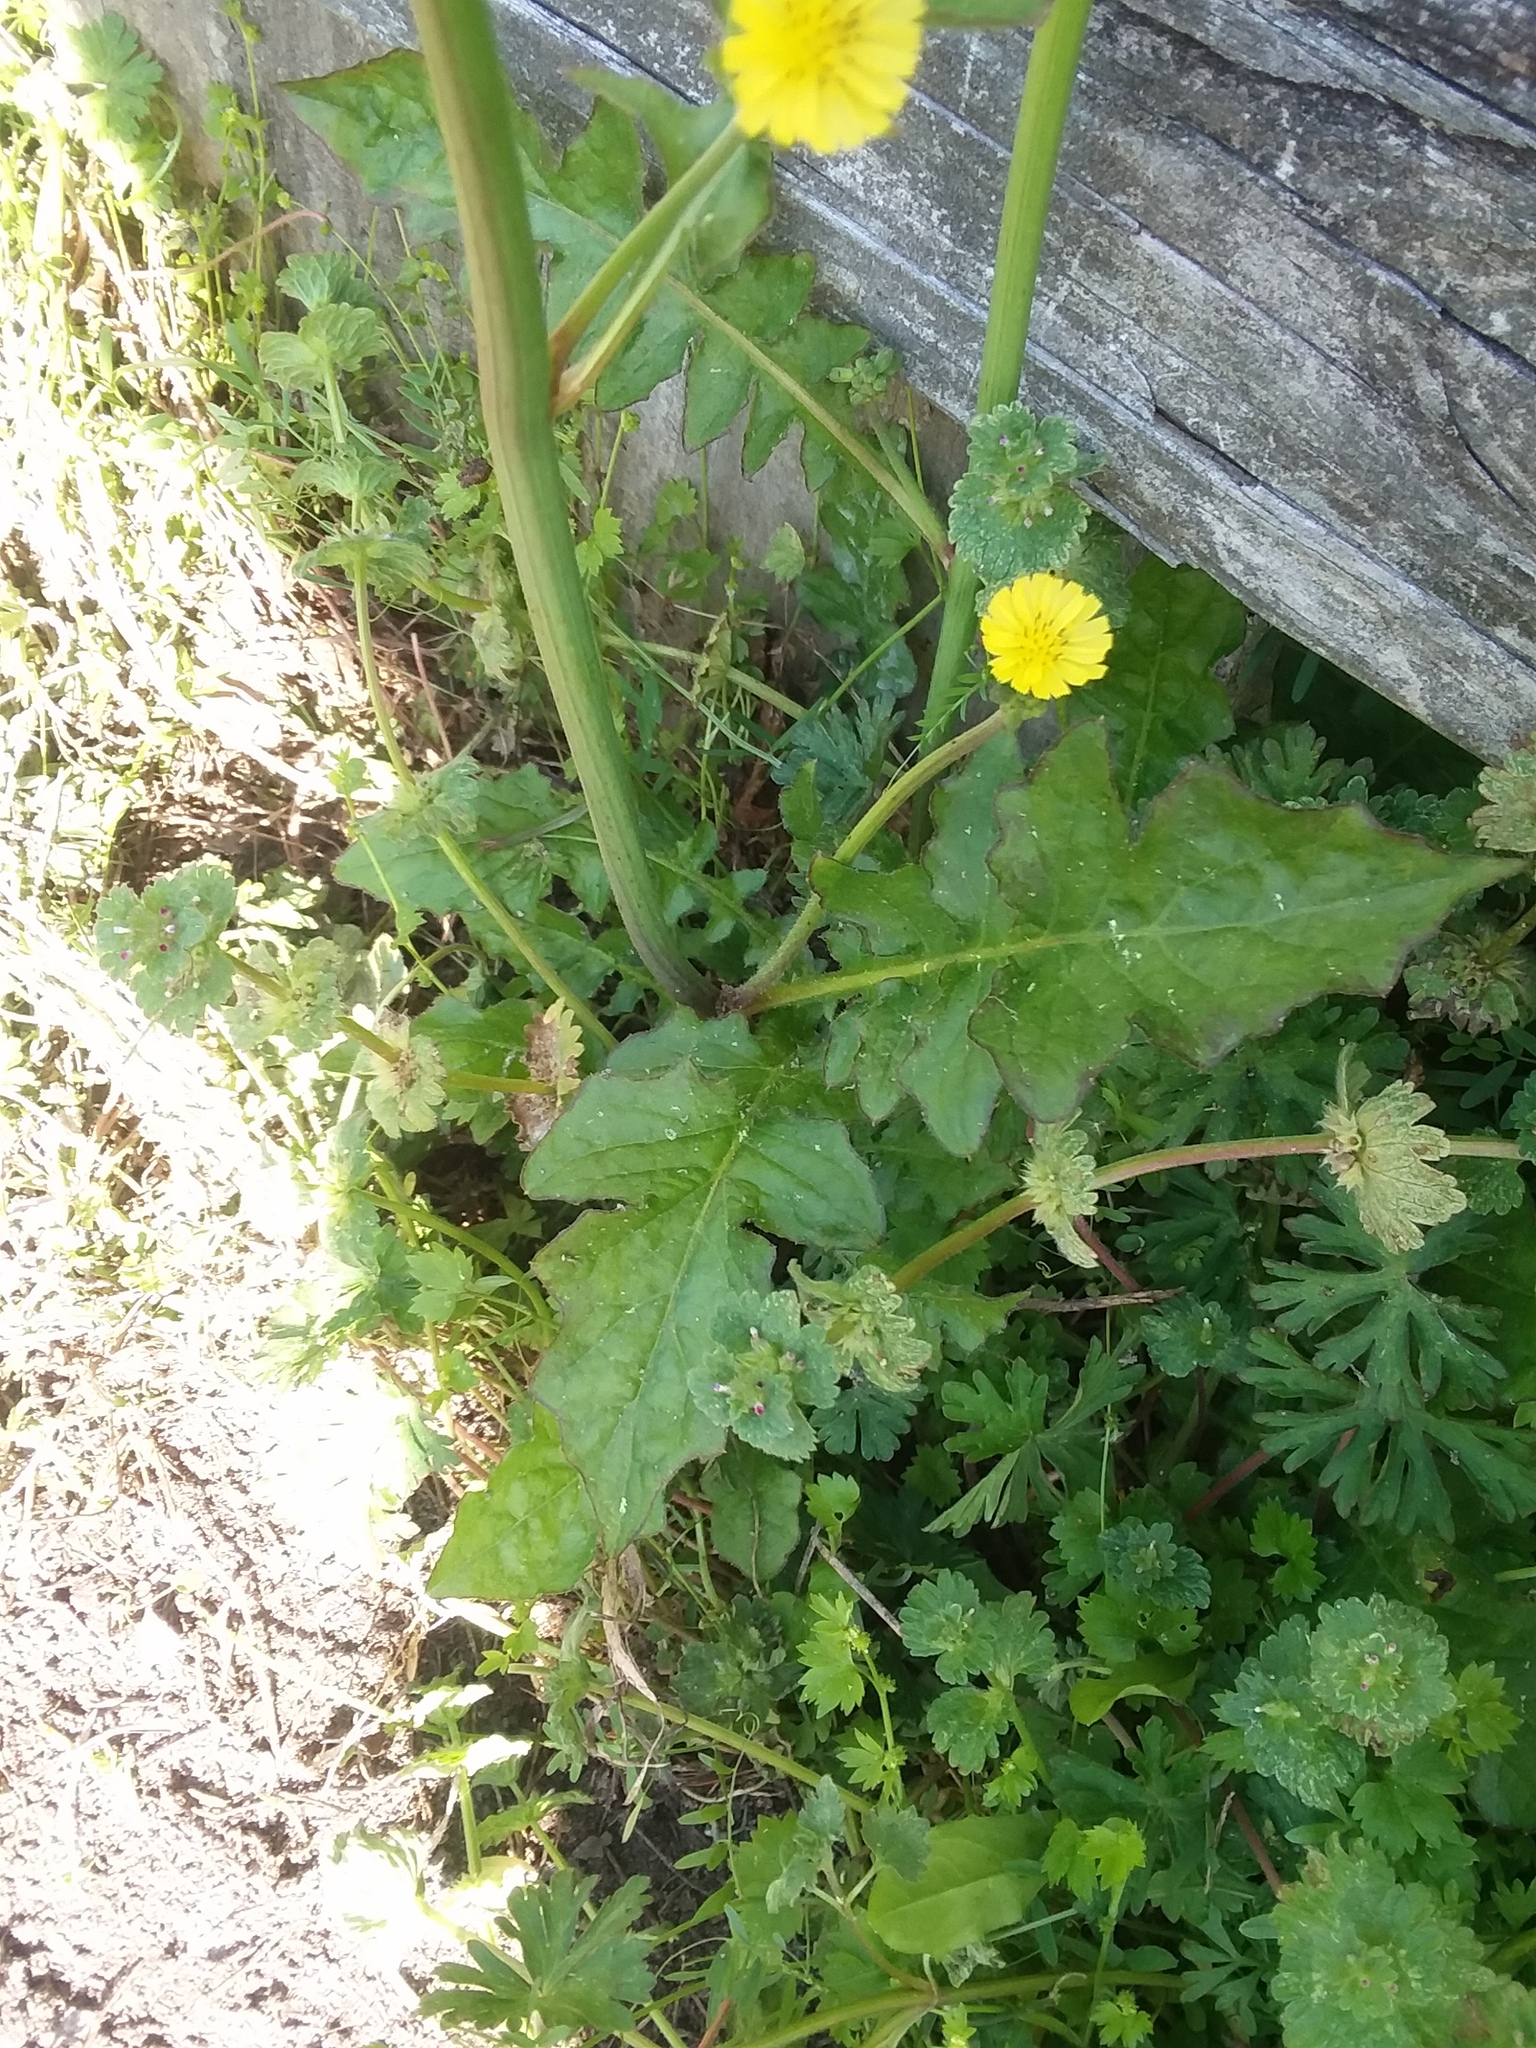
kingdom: Plantae
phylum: Tracheophyta
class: Magnoliopsida
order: Asterales
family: Asteraceae
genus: Youngia
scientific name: Youngia japonica
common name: Oriental false hawksbeard
